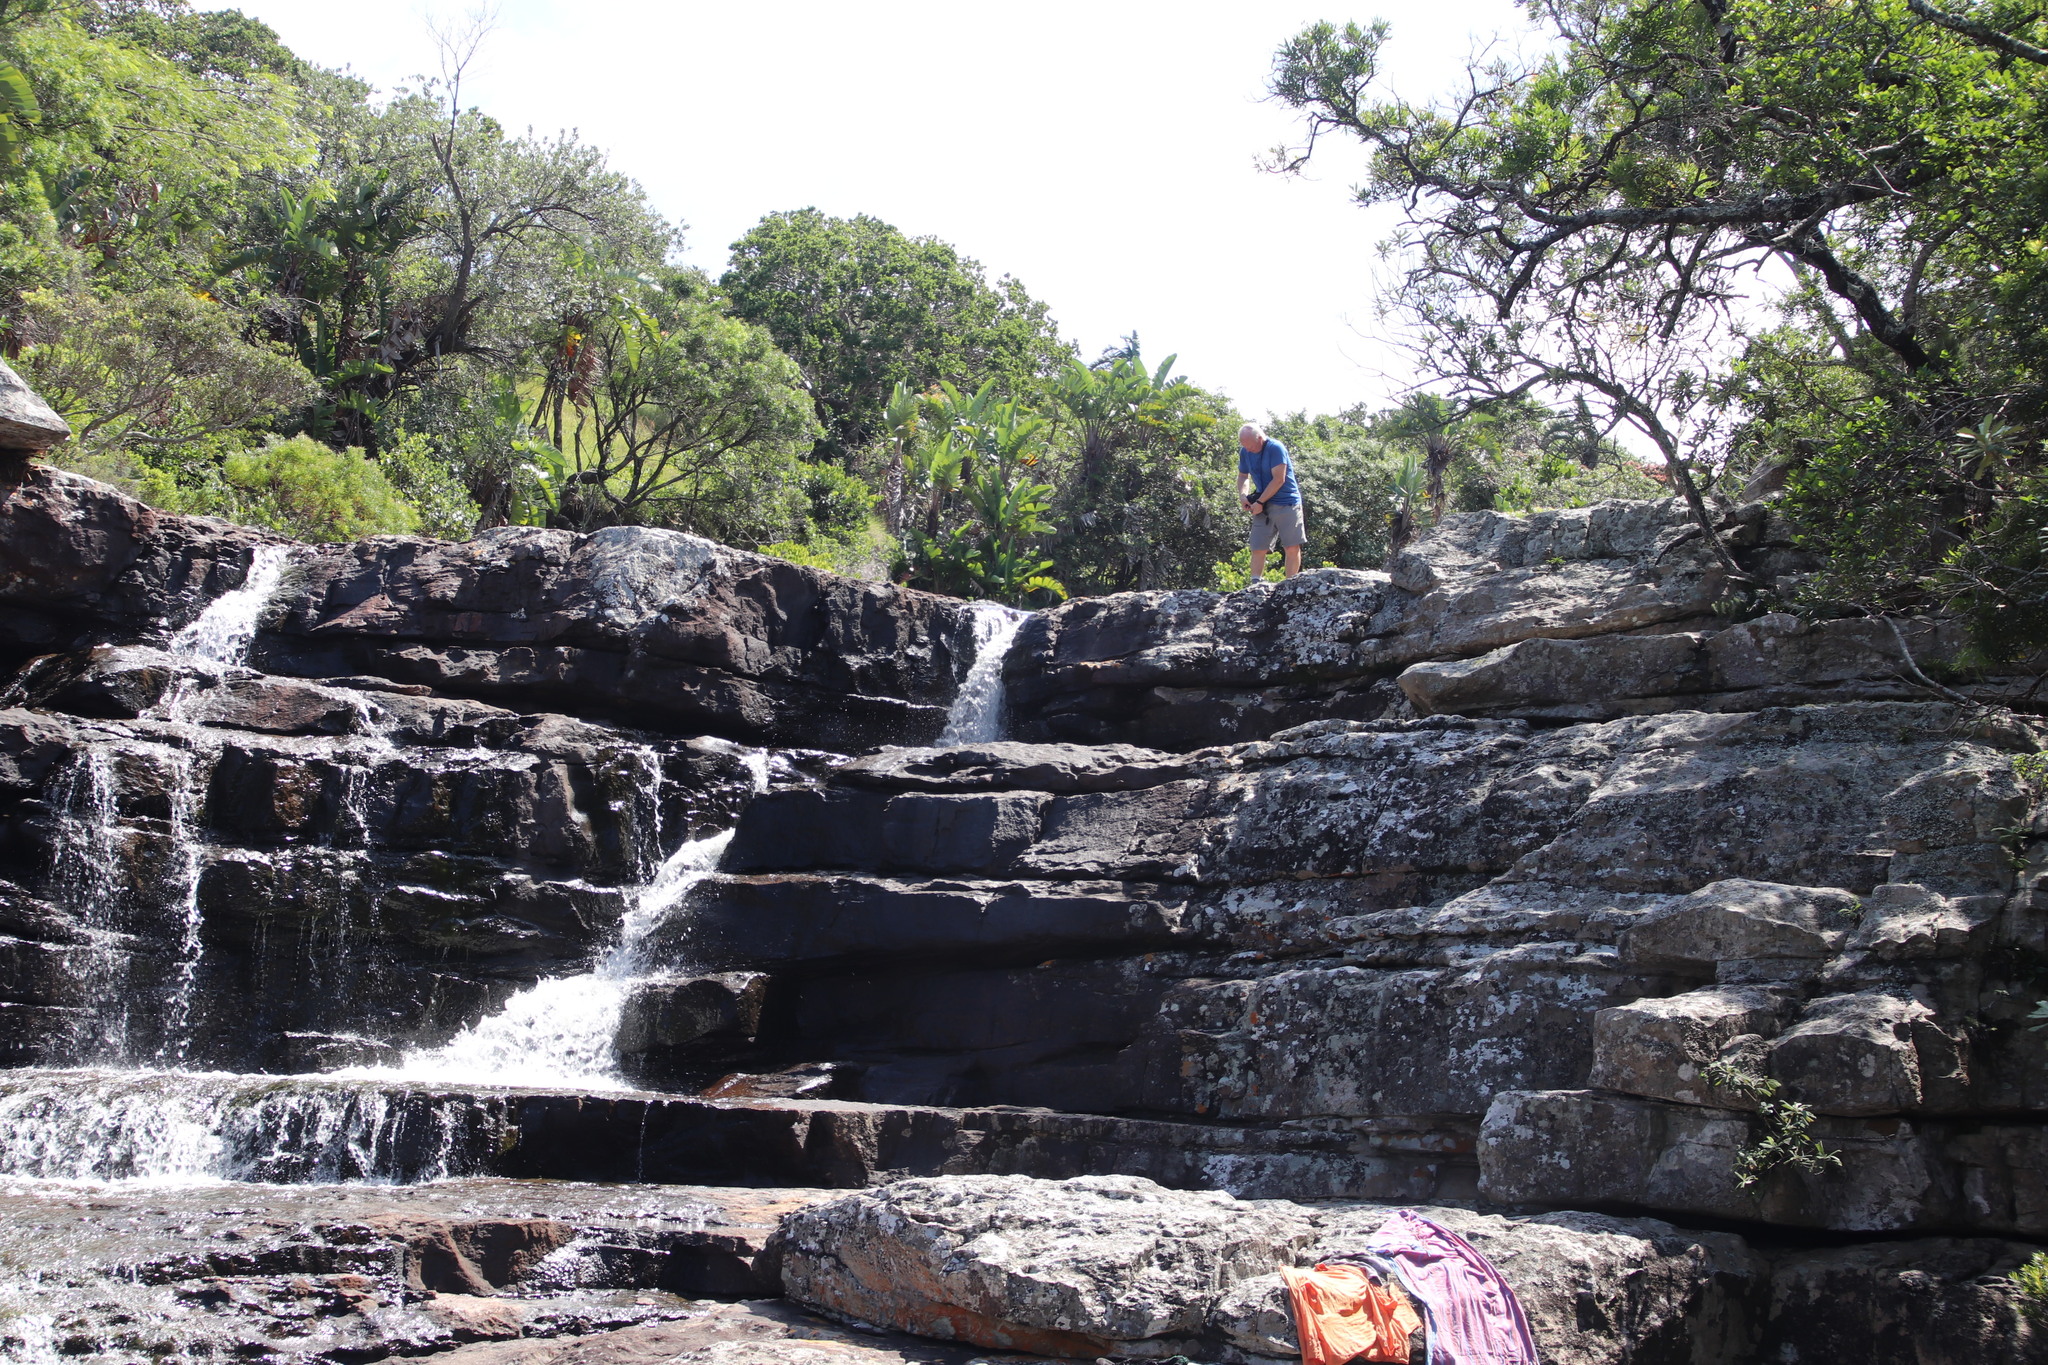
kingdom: Plantae
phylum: Tracheophyta
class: Liliopsida
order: Zingiberales
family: Strelitziaceae
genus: Strelitzia
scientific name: Strelitzia nicolai
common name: Bird-of-paradise tree
